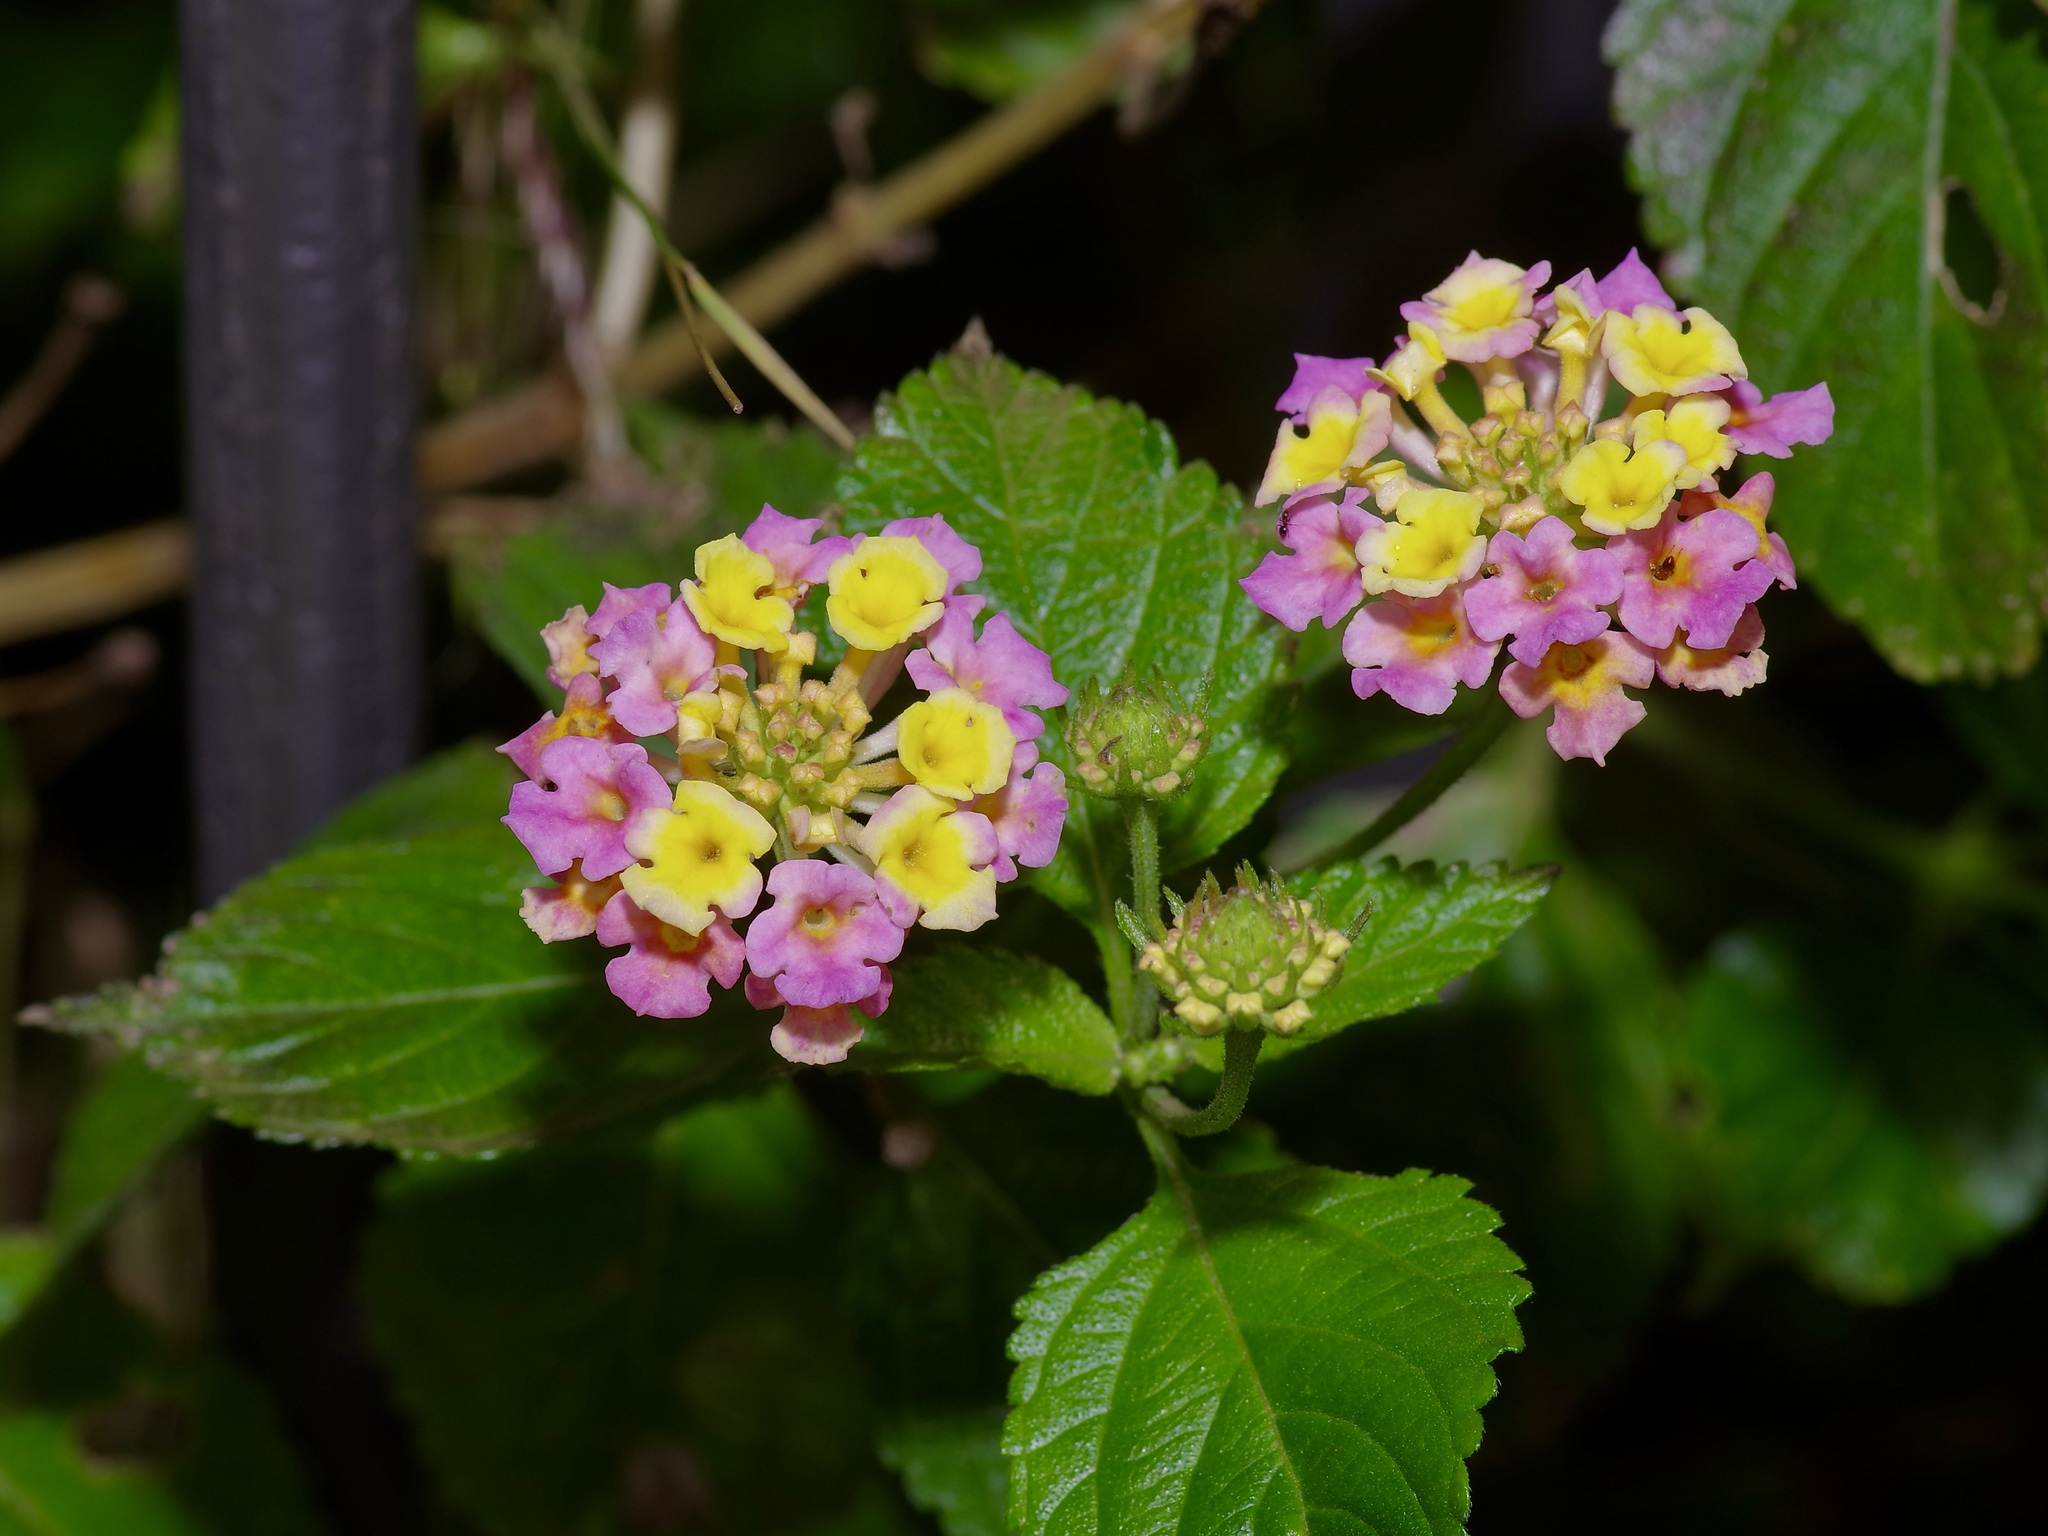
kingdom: Plantae
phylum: Tracheophyta
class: Magnoliopsida
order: Lamiales
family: Verbenaceae
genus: Lantana
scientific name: Lantana strigocamara
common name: Lantana
